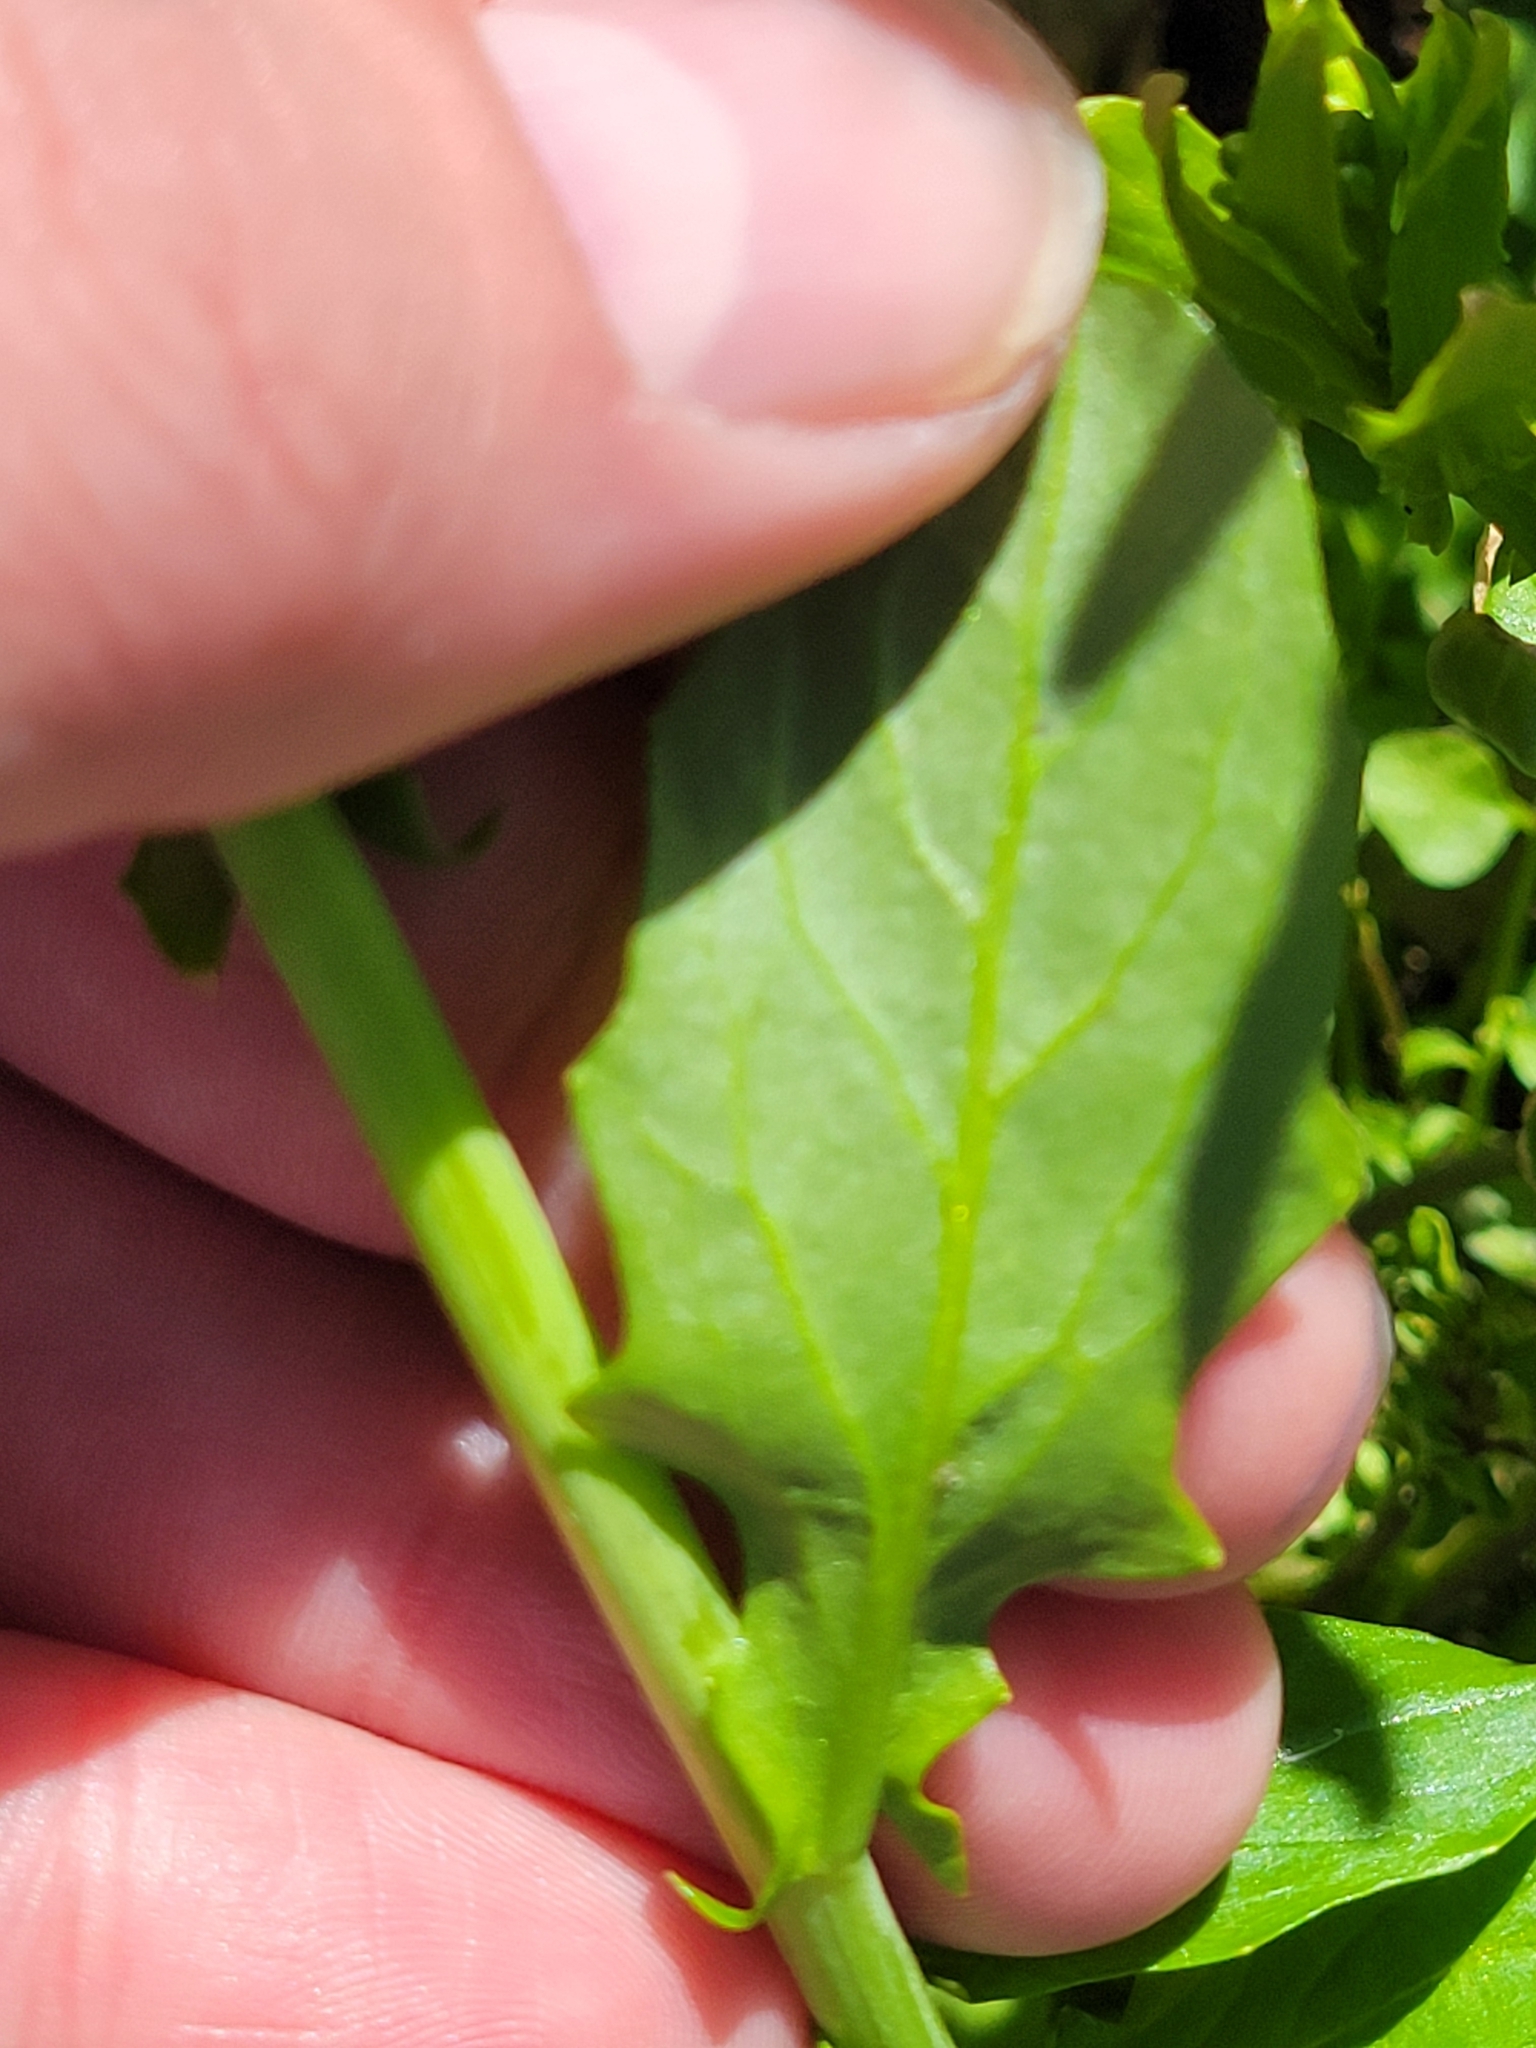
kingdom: Plantae
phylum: Tracheophyta
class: Magnoliopsida
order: Brassicales
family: Brassicaceae
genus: Mummenhoffia
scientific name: Mummenhoffia alliacea
